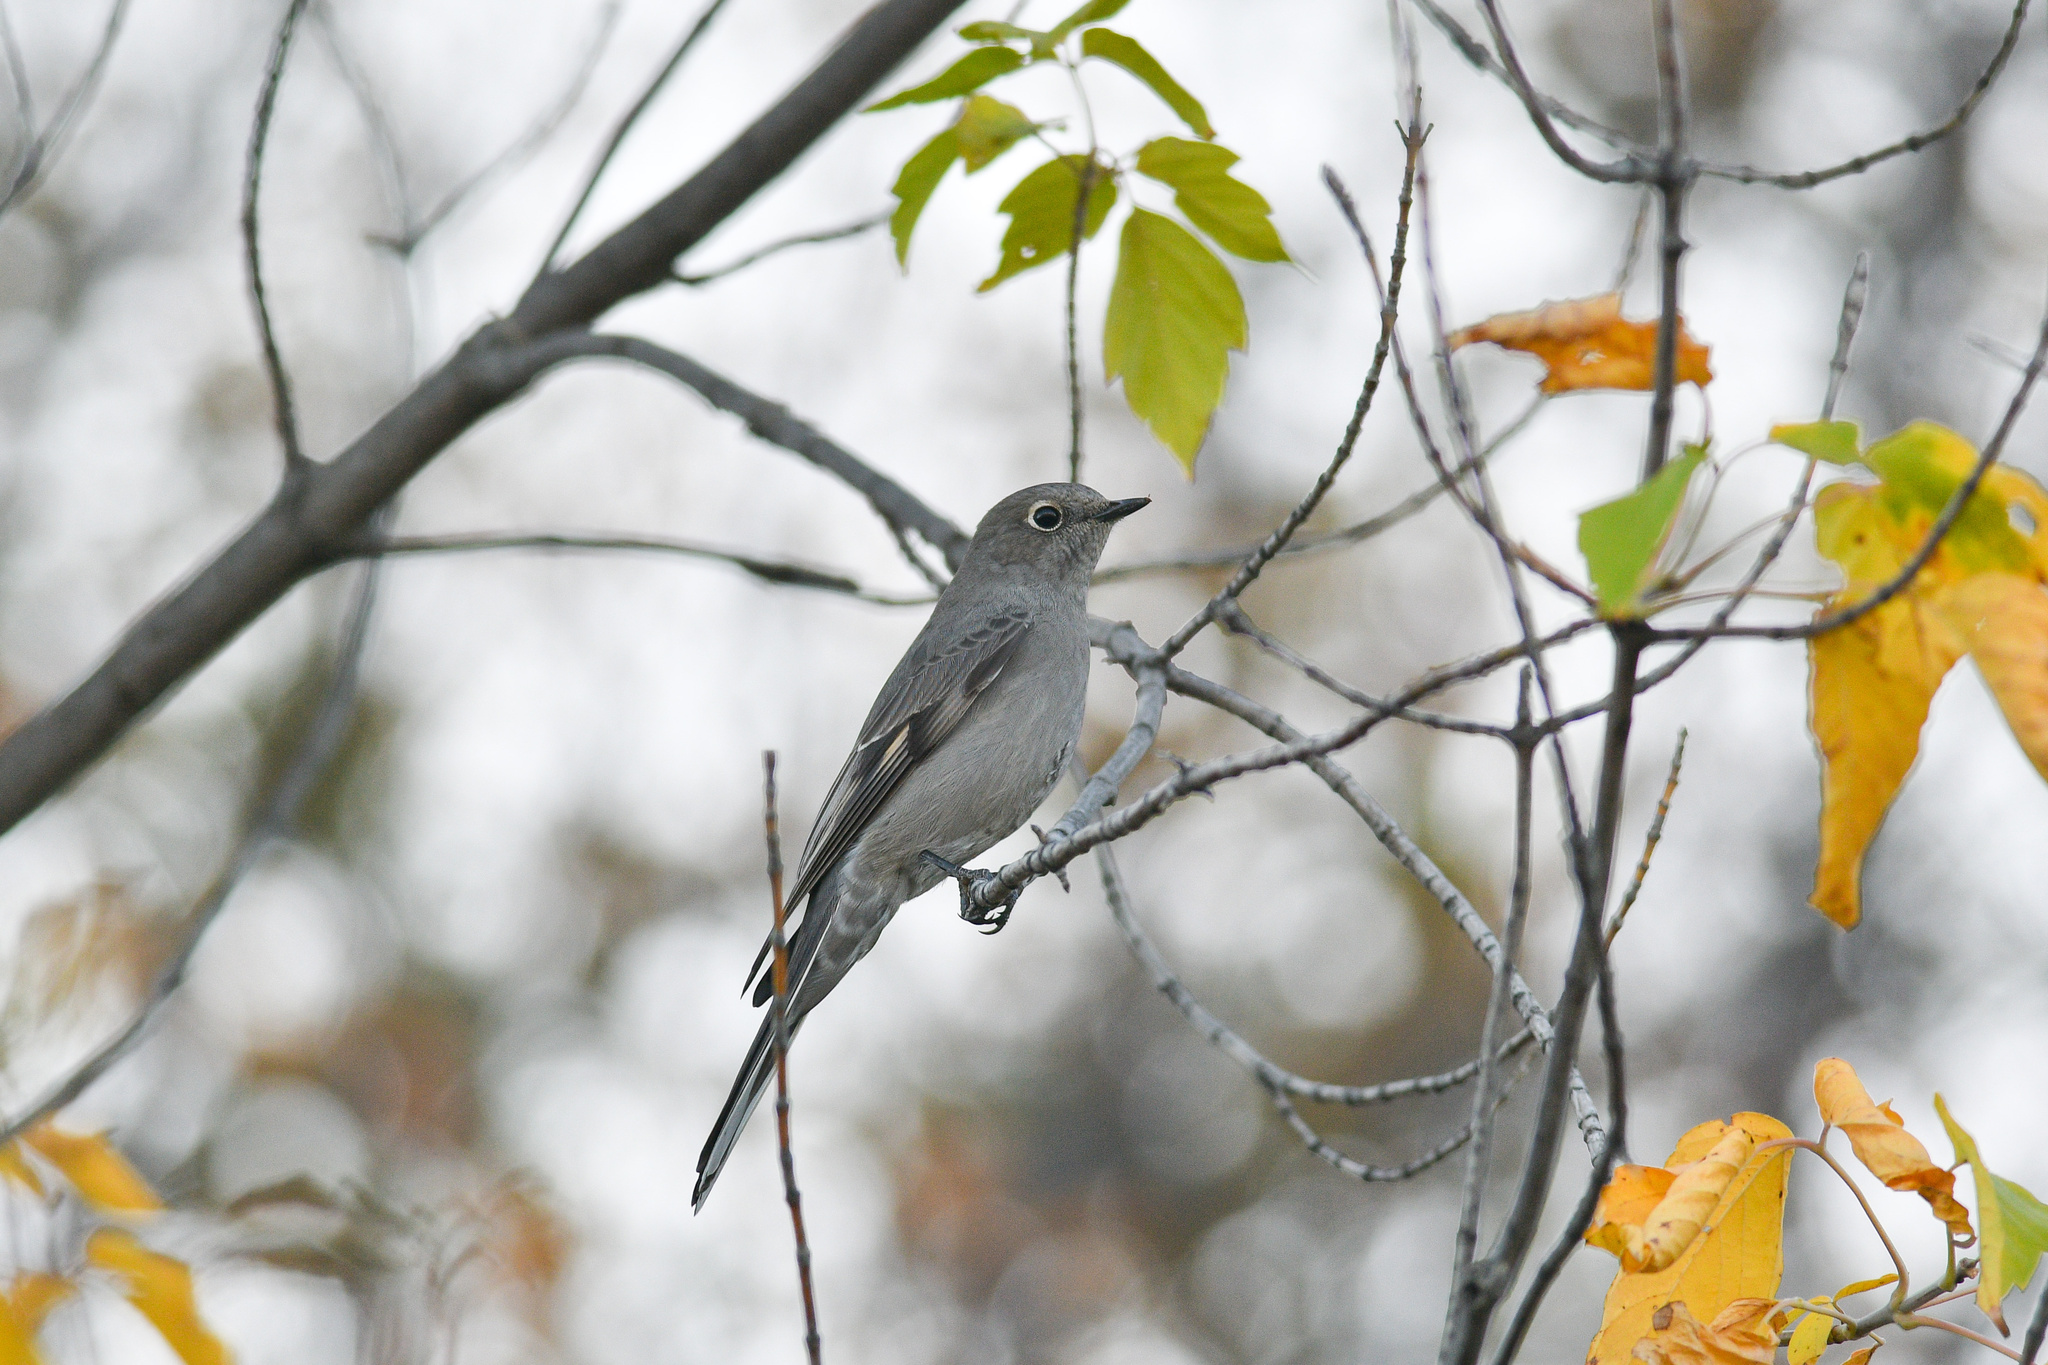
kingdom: Animalia
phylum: Chordata
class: Aves
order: Passeriformes
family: Turdidae
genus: Myadestes
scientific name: Myadestes townsendi
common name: Townsend's solitaire
